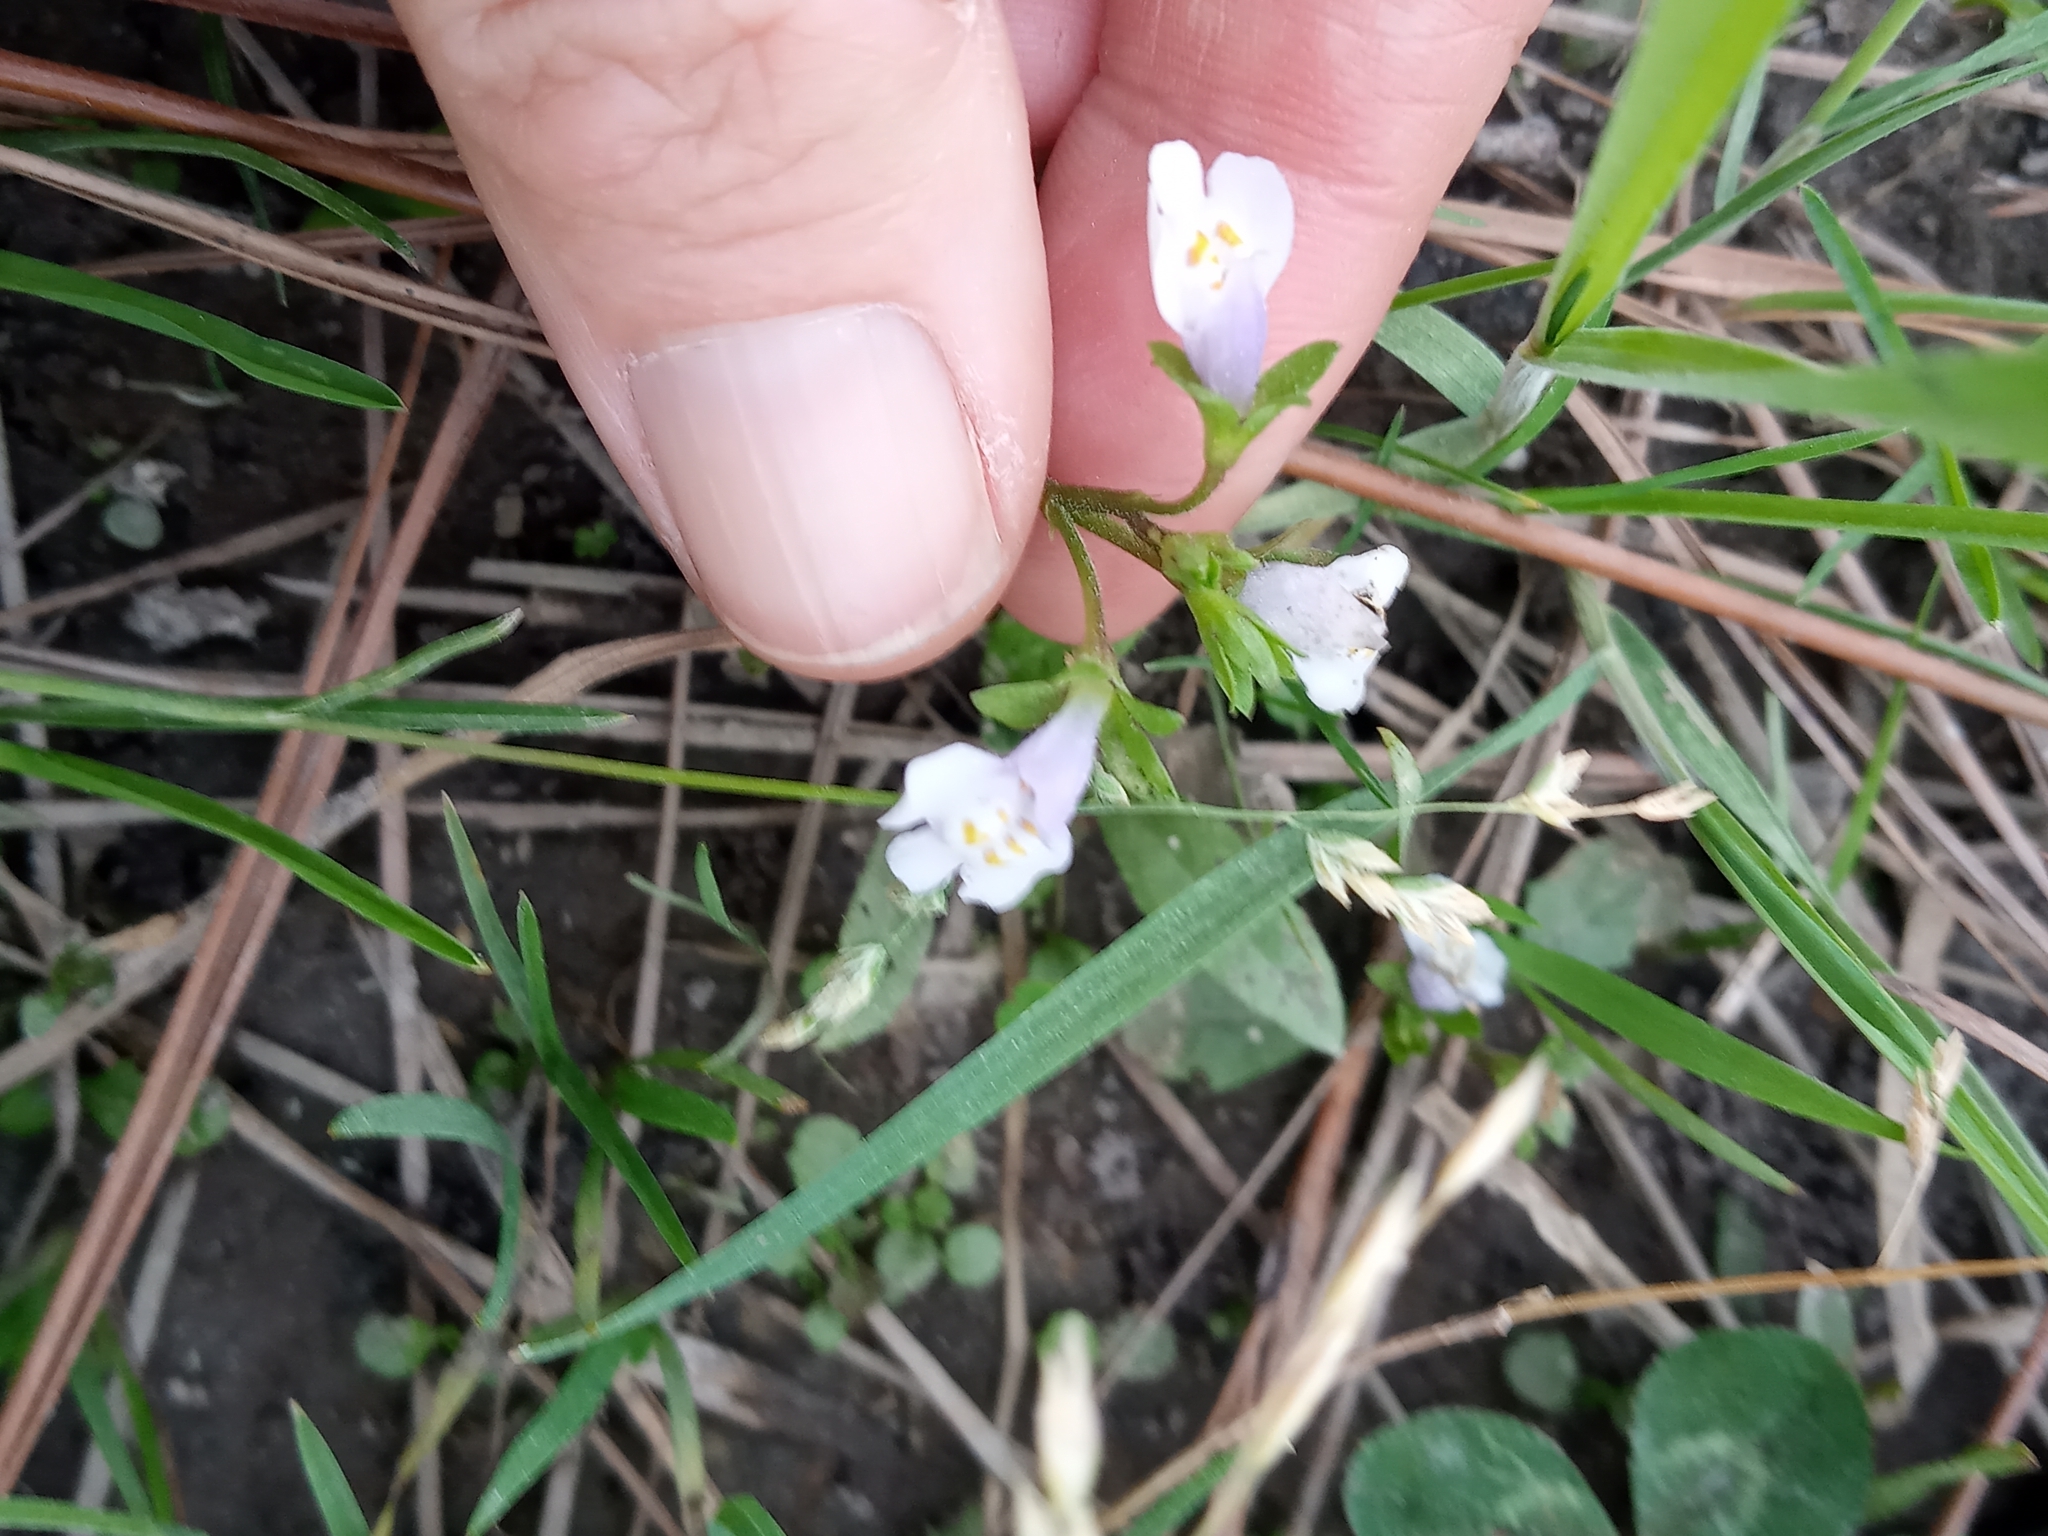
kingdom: Plantae
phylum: Tracheophyta
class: Magnoliopsida
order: Lamiales
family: Mazaceae
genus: Mazus
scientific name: Mazus pumilus
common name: Japanese mazus
